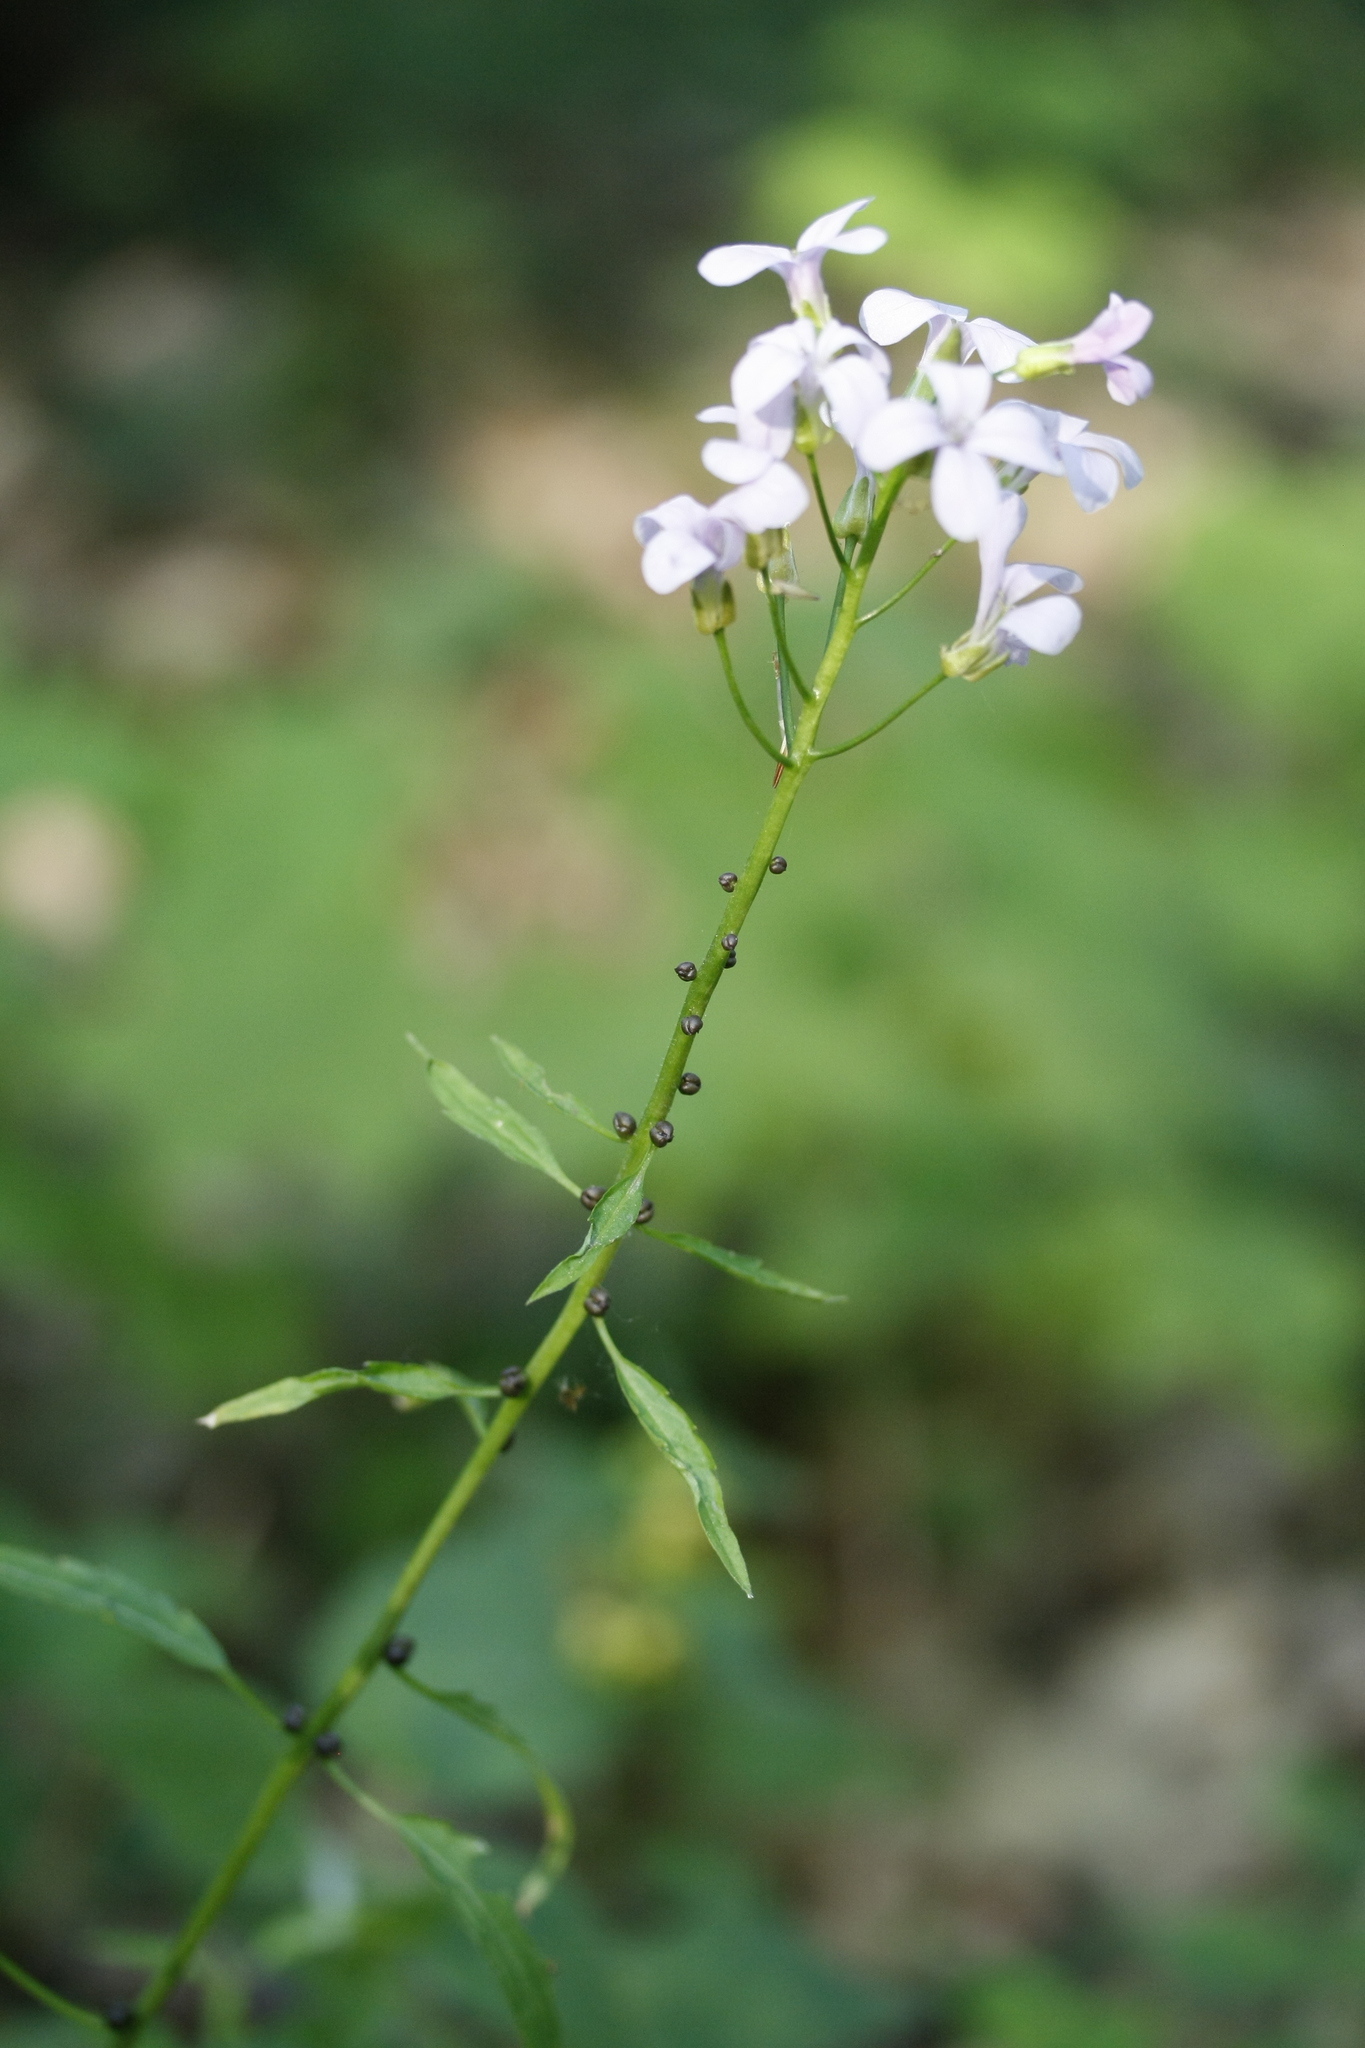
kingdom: Plantae
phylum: Tracheophyta
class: Magnoliopsida
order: Brassicales
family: Brassicaceae
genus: Cardamine
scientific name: Cardamine bulbifera
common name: Coralroot bittercress
